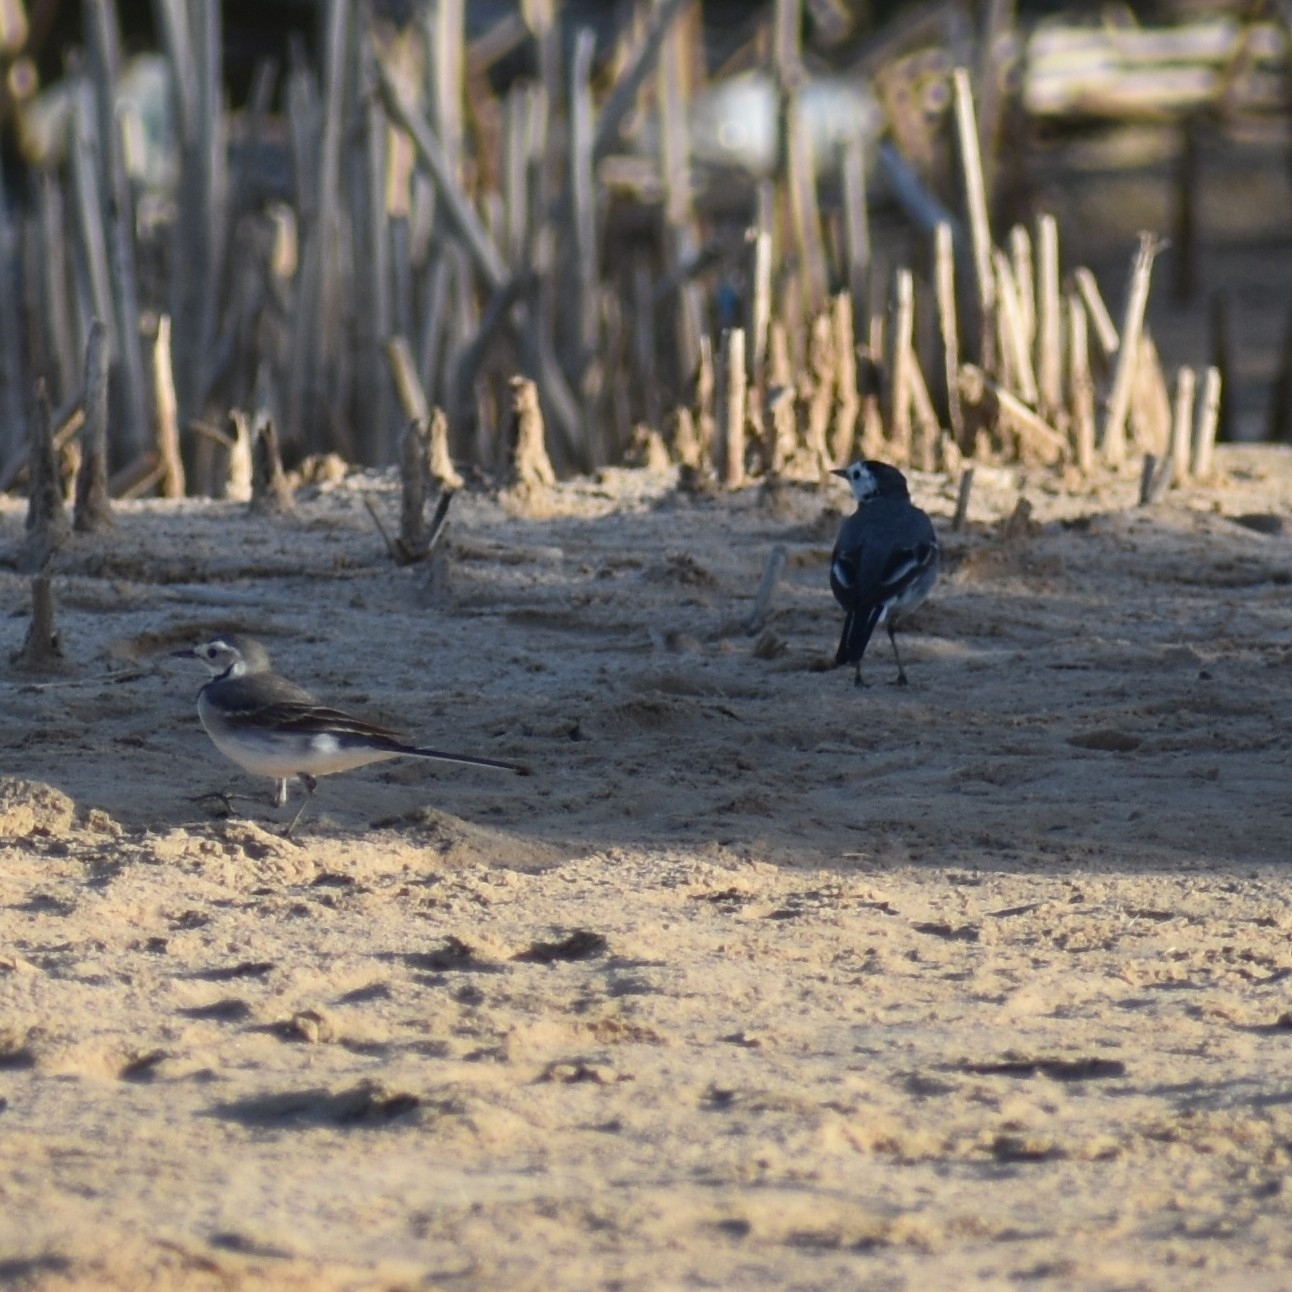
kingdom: Animalia
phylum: Chordata
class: Aves
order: Passeriformes
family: Motacillidae
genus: Motacilla
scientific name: Motacilla alba
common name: White wagtail
